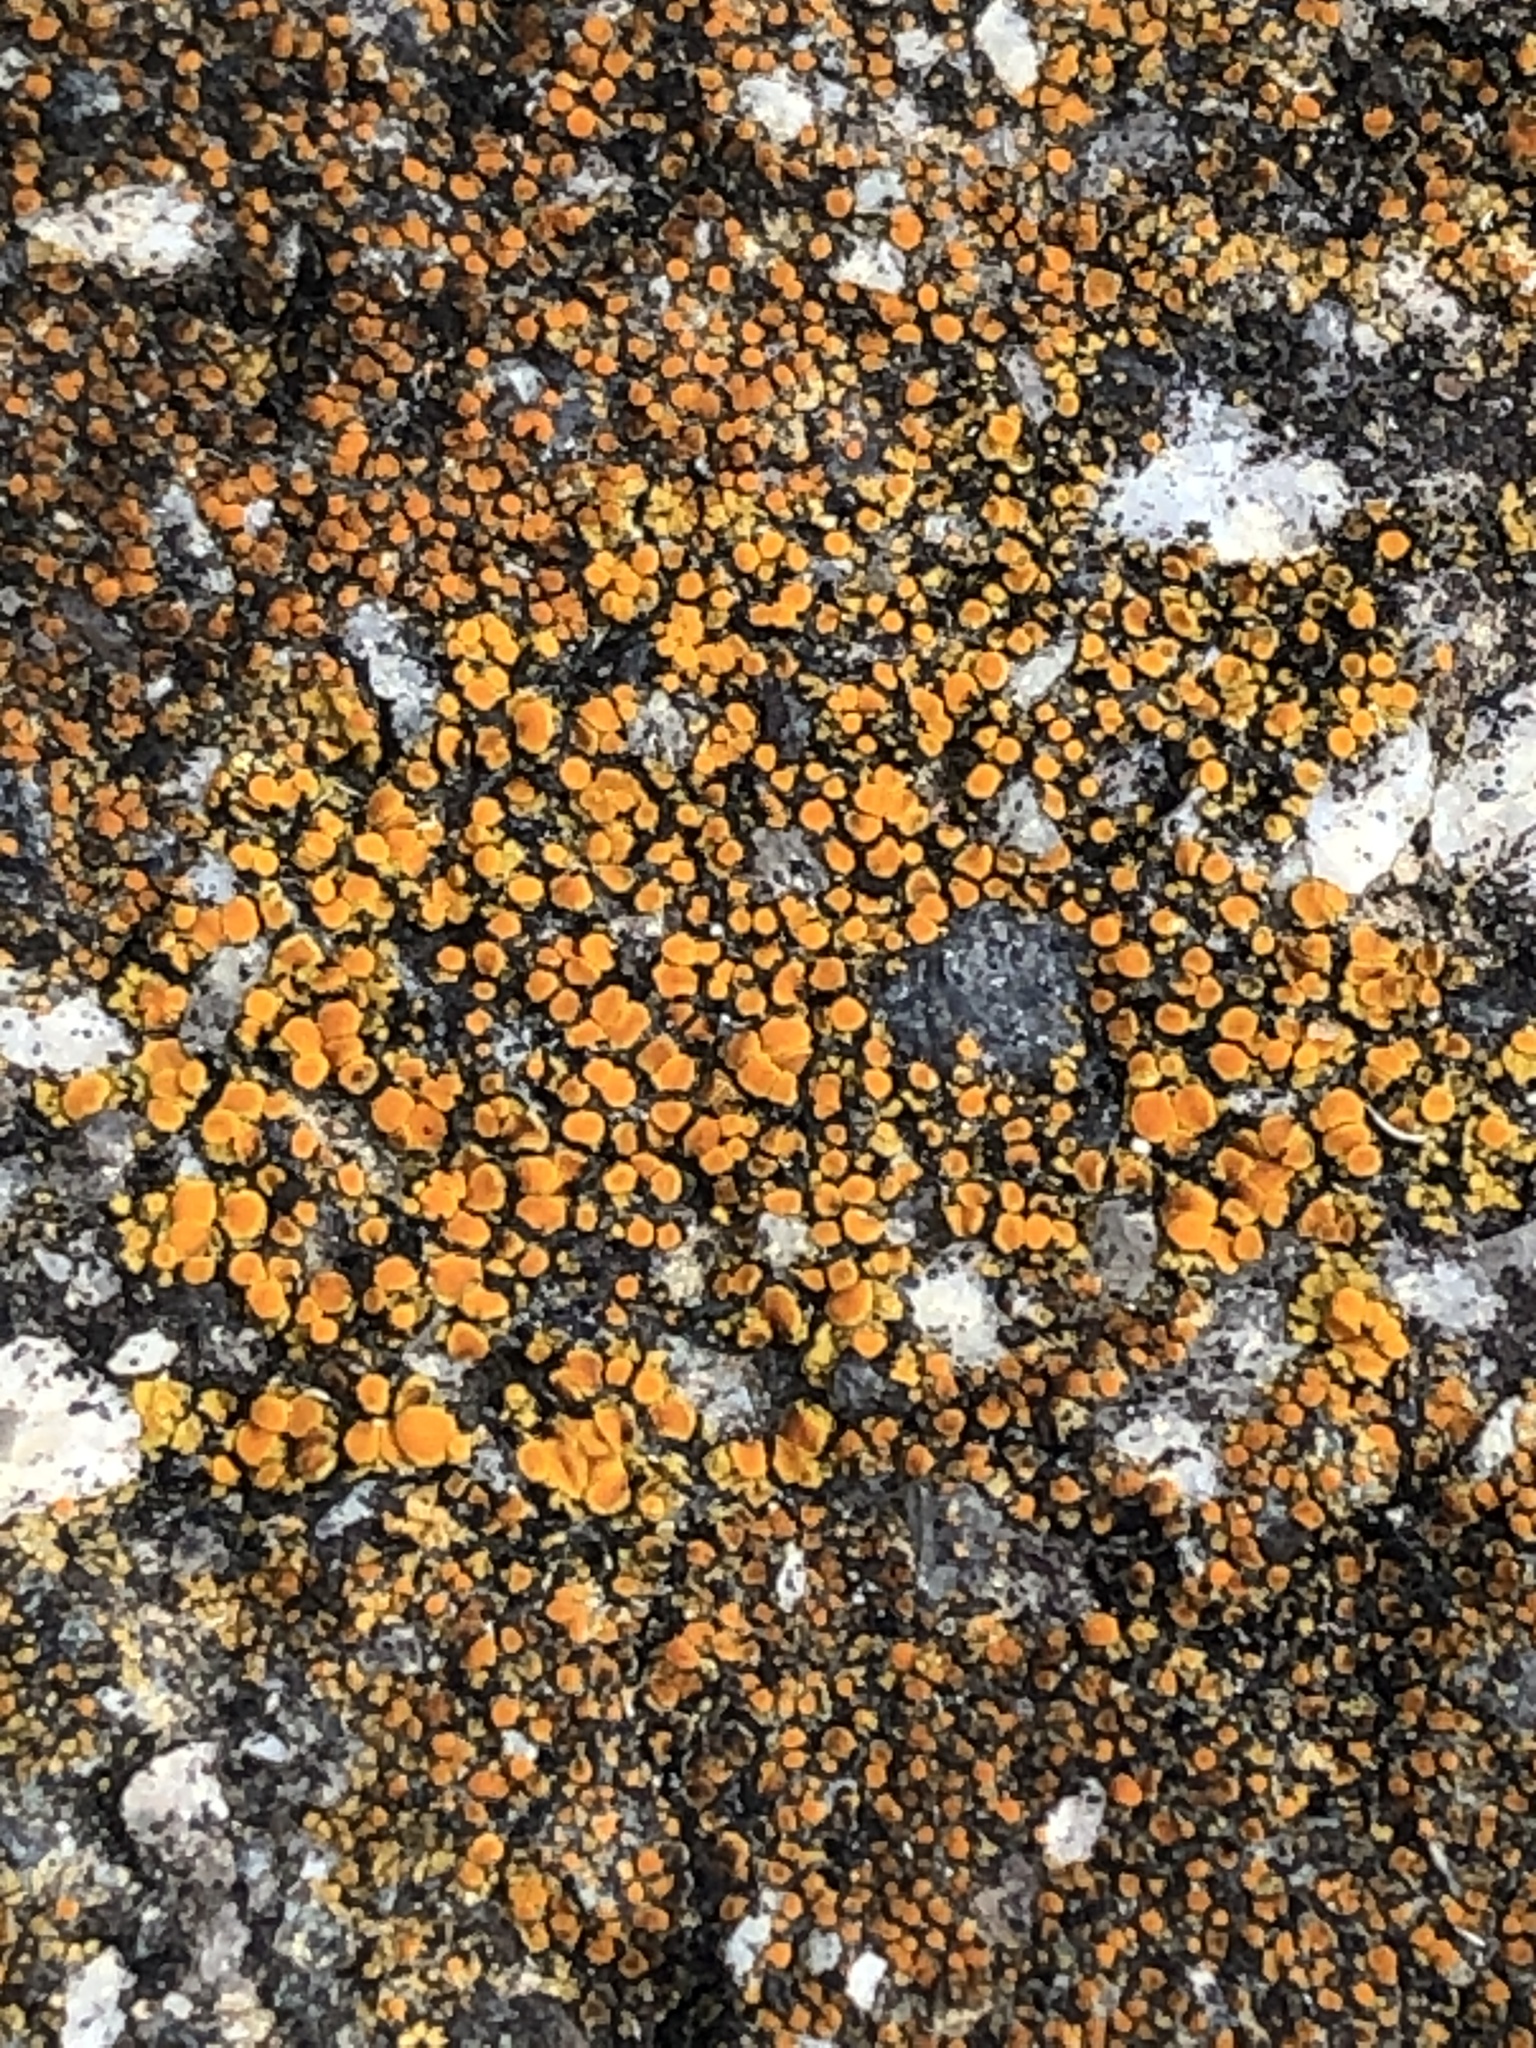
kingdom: Fungi
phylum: Ascomycota
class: Lecanoromycetes
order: Teloschistales
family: Teloschistaceae
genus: Xanthocarpia
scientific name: Xanthocarpia feracissima
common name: Sidewalk firedot
